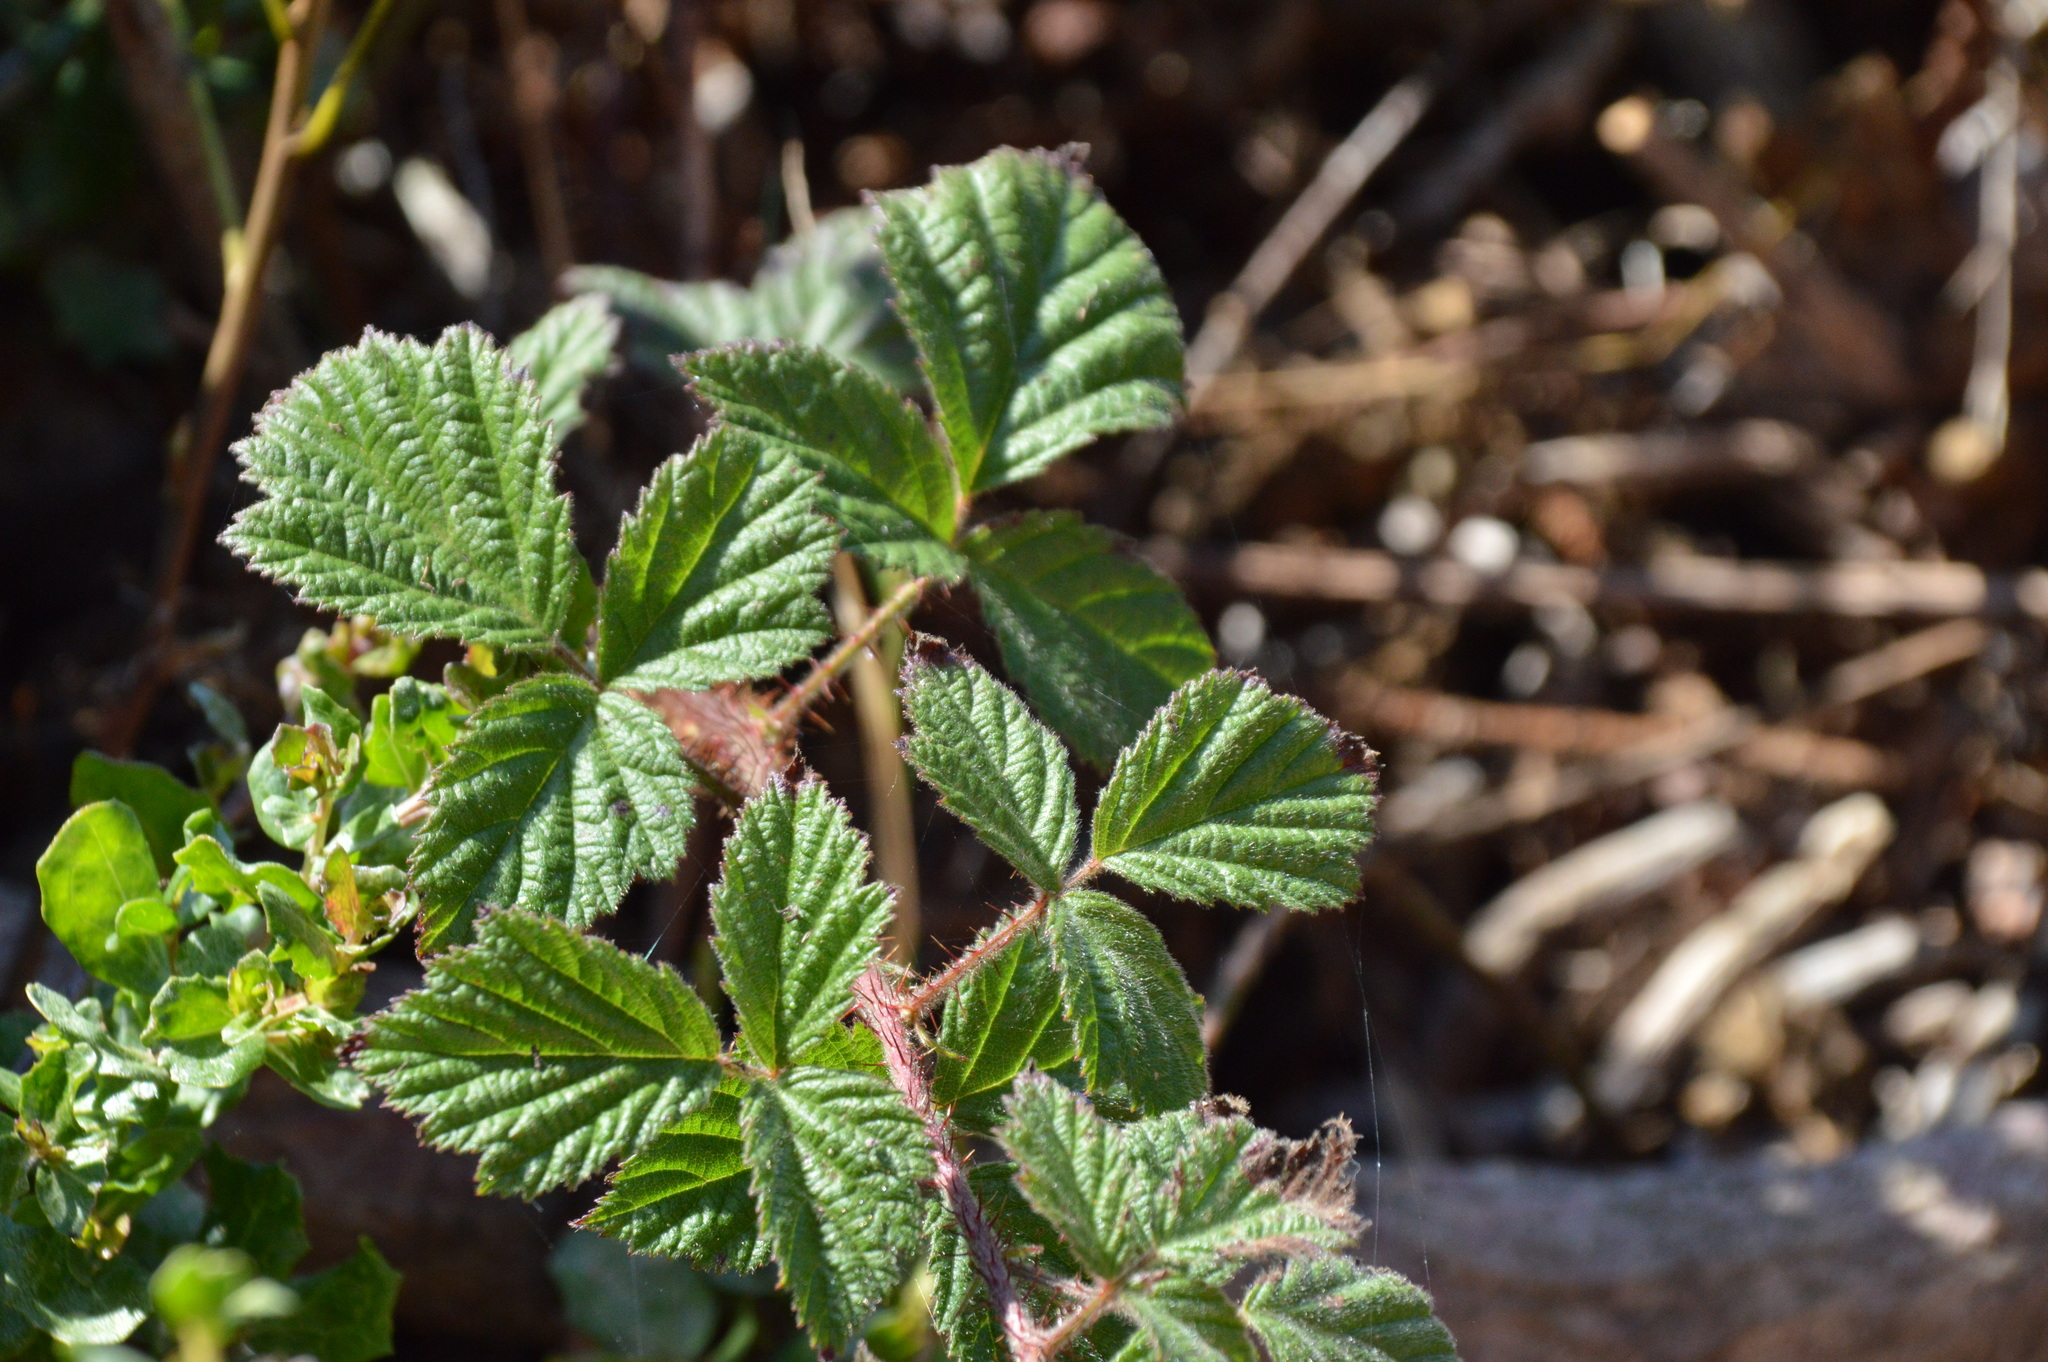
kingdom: Plantae
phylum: Tracheophyta
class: Magnoliopsida
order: Rosales
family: Rosaceae
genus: Rubus
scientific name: Rubus ursinus
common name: Pacific blackberry
